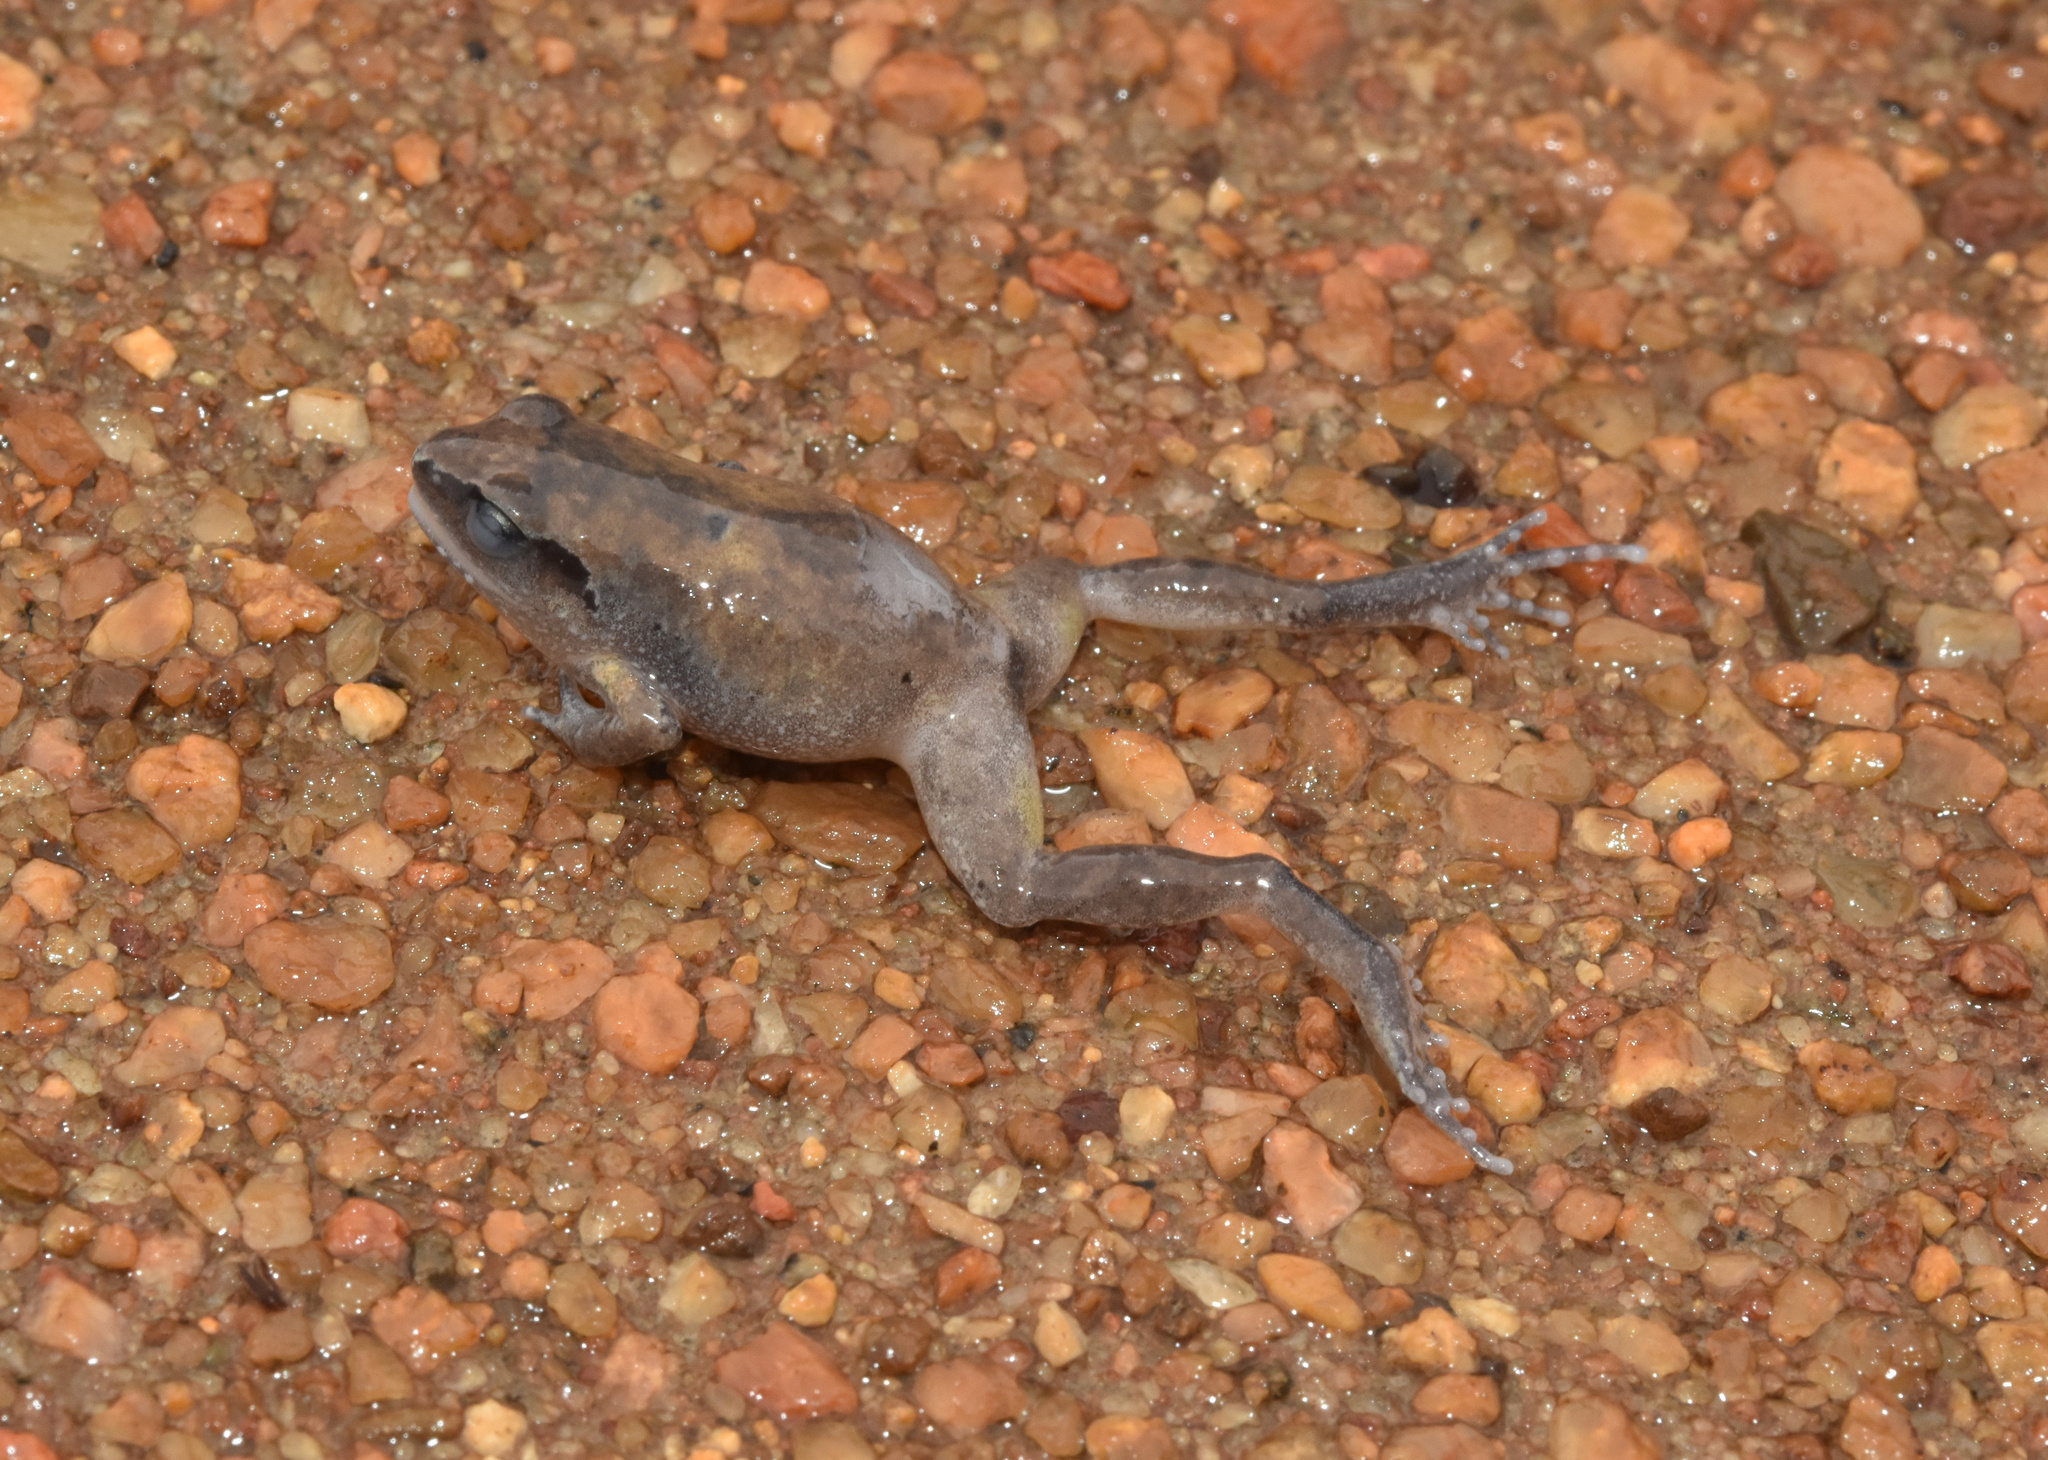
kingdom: Animalia
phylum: Chordata
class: Amphibia
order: Anura
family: Arthroleptidae
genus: Arthroleptis
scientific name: Arthroleptis wahlbergii
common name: Bush squeaker
